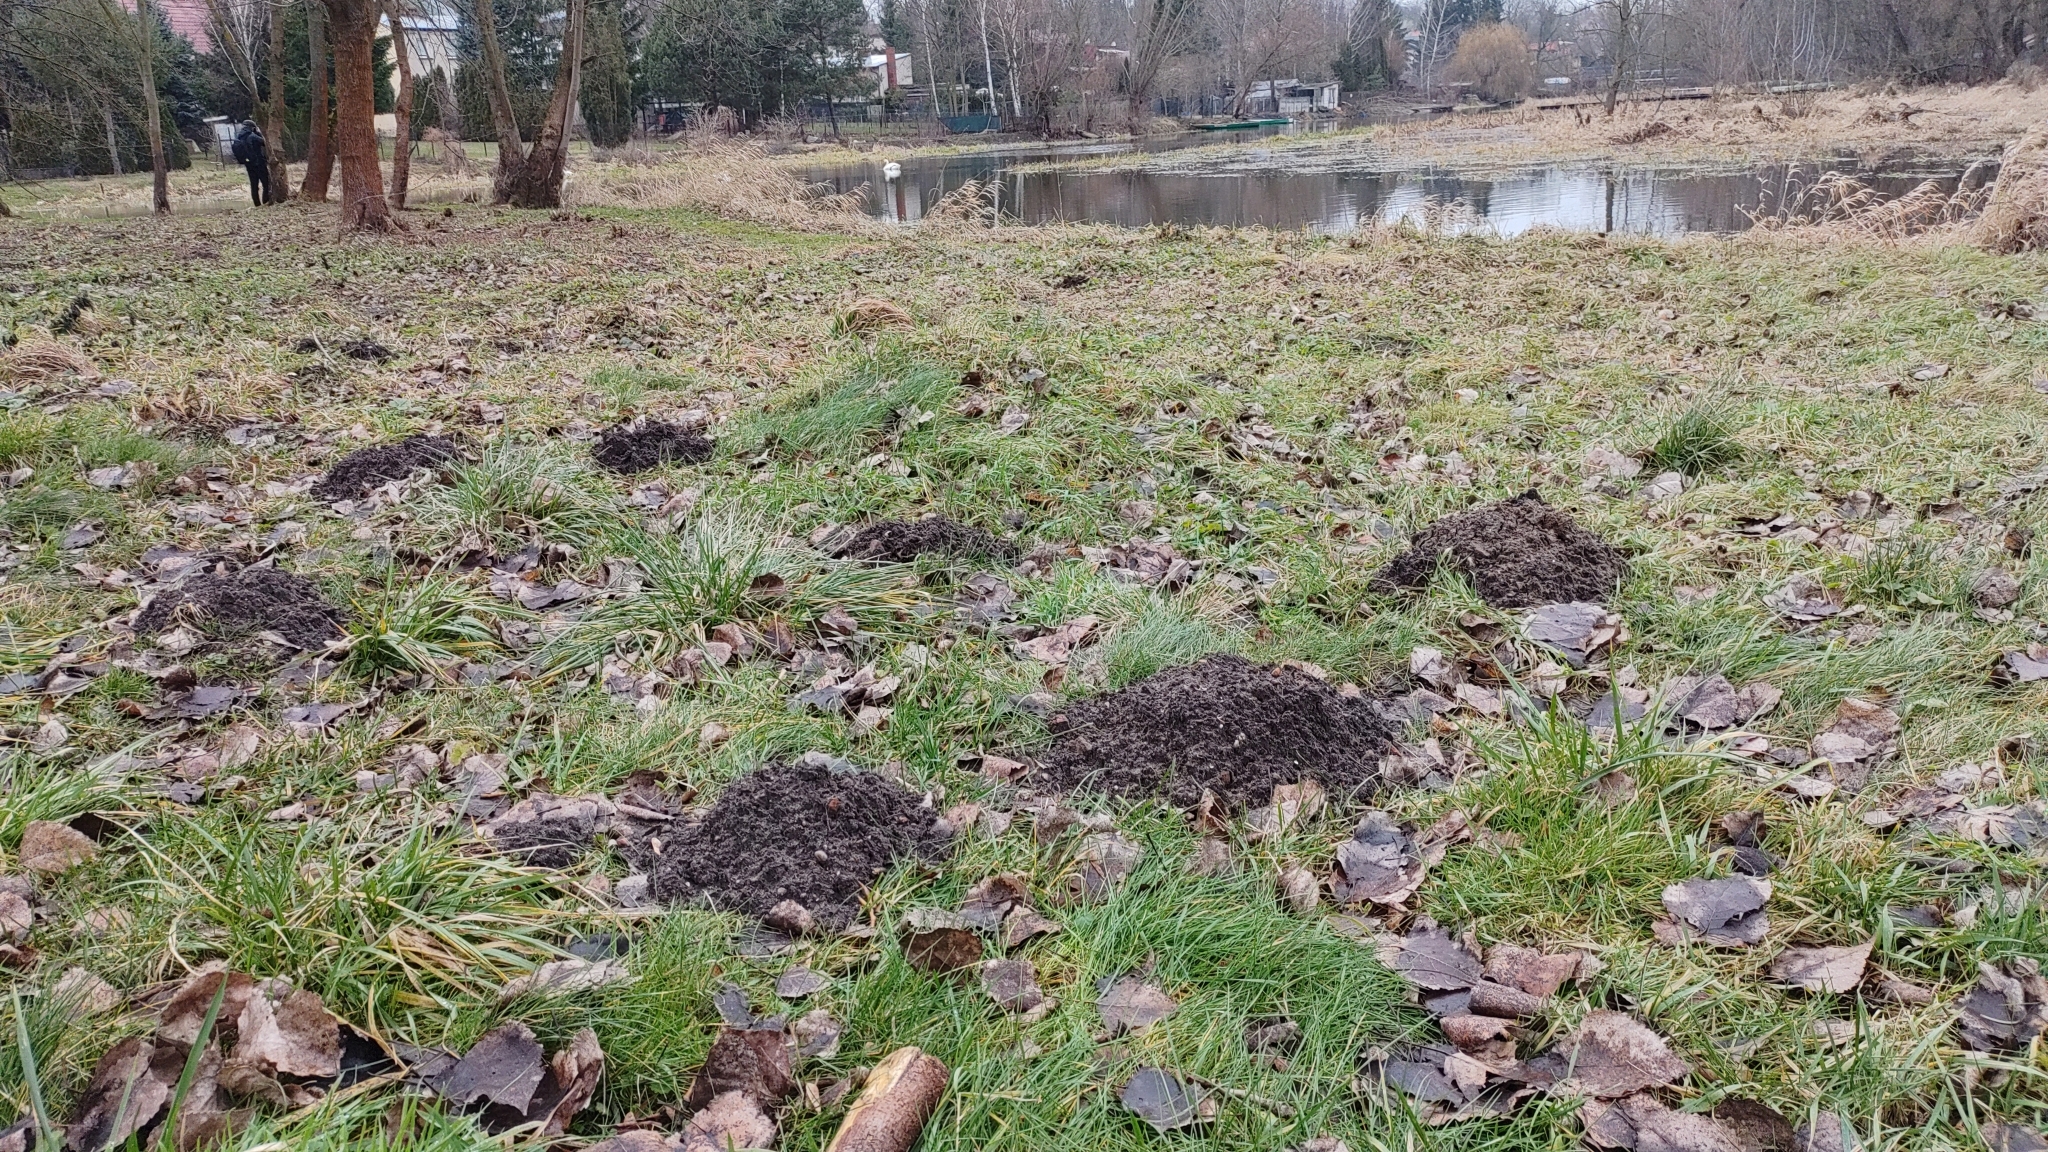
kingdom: Animalia
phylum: Chordata
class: Mammalia
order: Soricomorpha
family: Talpidae
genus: Talpa
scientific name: Talpa europaea
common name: European mole
